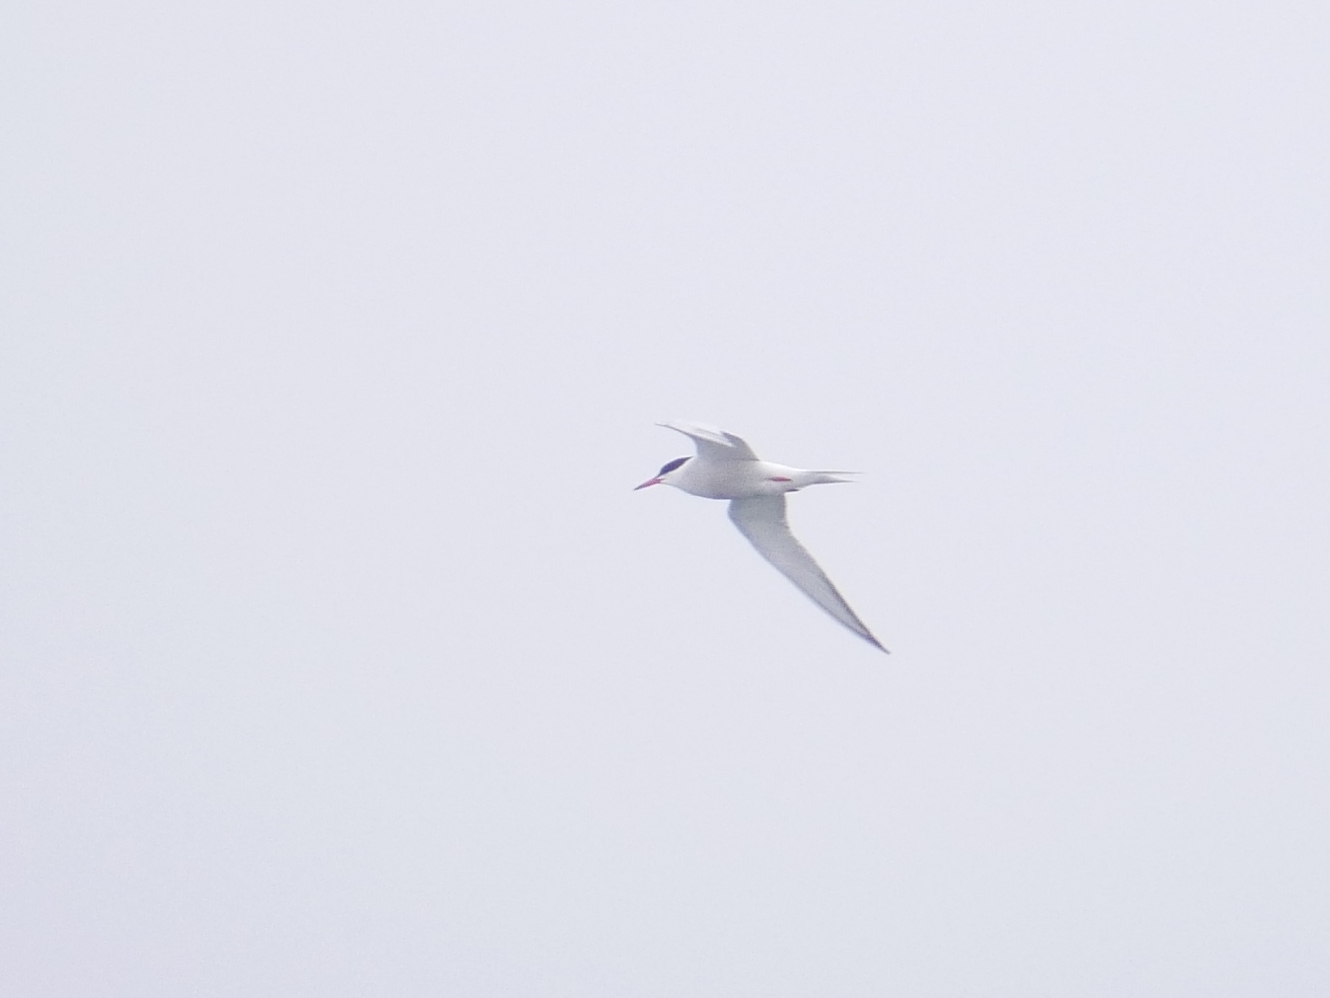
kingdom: Animalia
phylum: Chordata
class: Aves
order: Charadriiformes
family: Laridae
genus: Sterna
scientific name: Sterna hirundo
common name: Common tern
